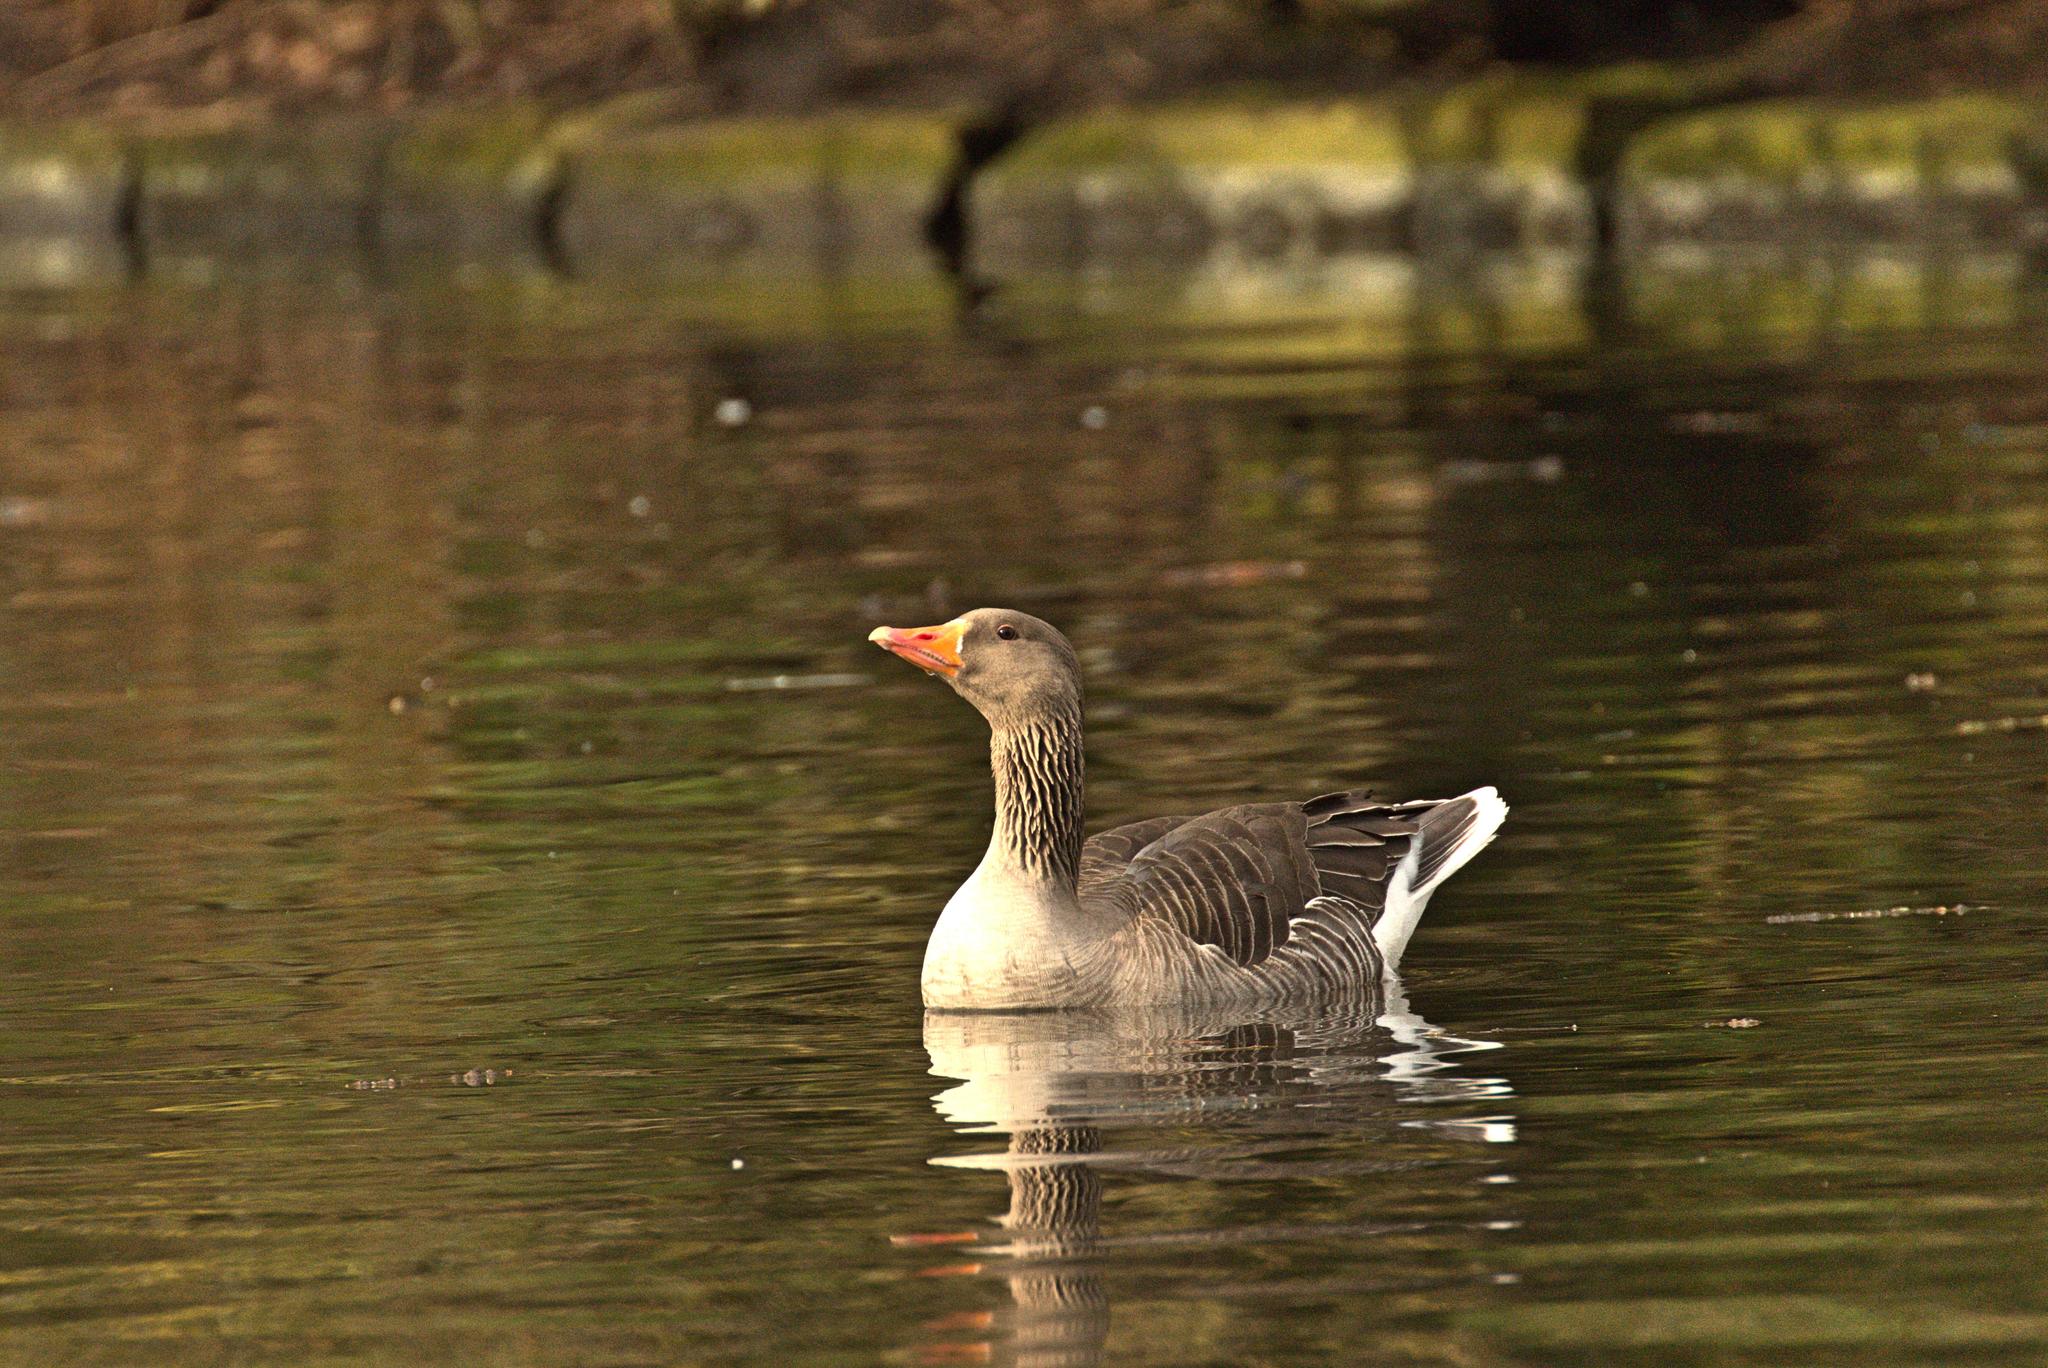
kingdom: Animalia
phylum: Chordata
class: Aves
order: Anseriformes
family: Anatidae
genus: Anser
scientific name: Anser anser
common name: Greylag goose
